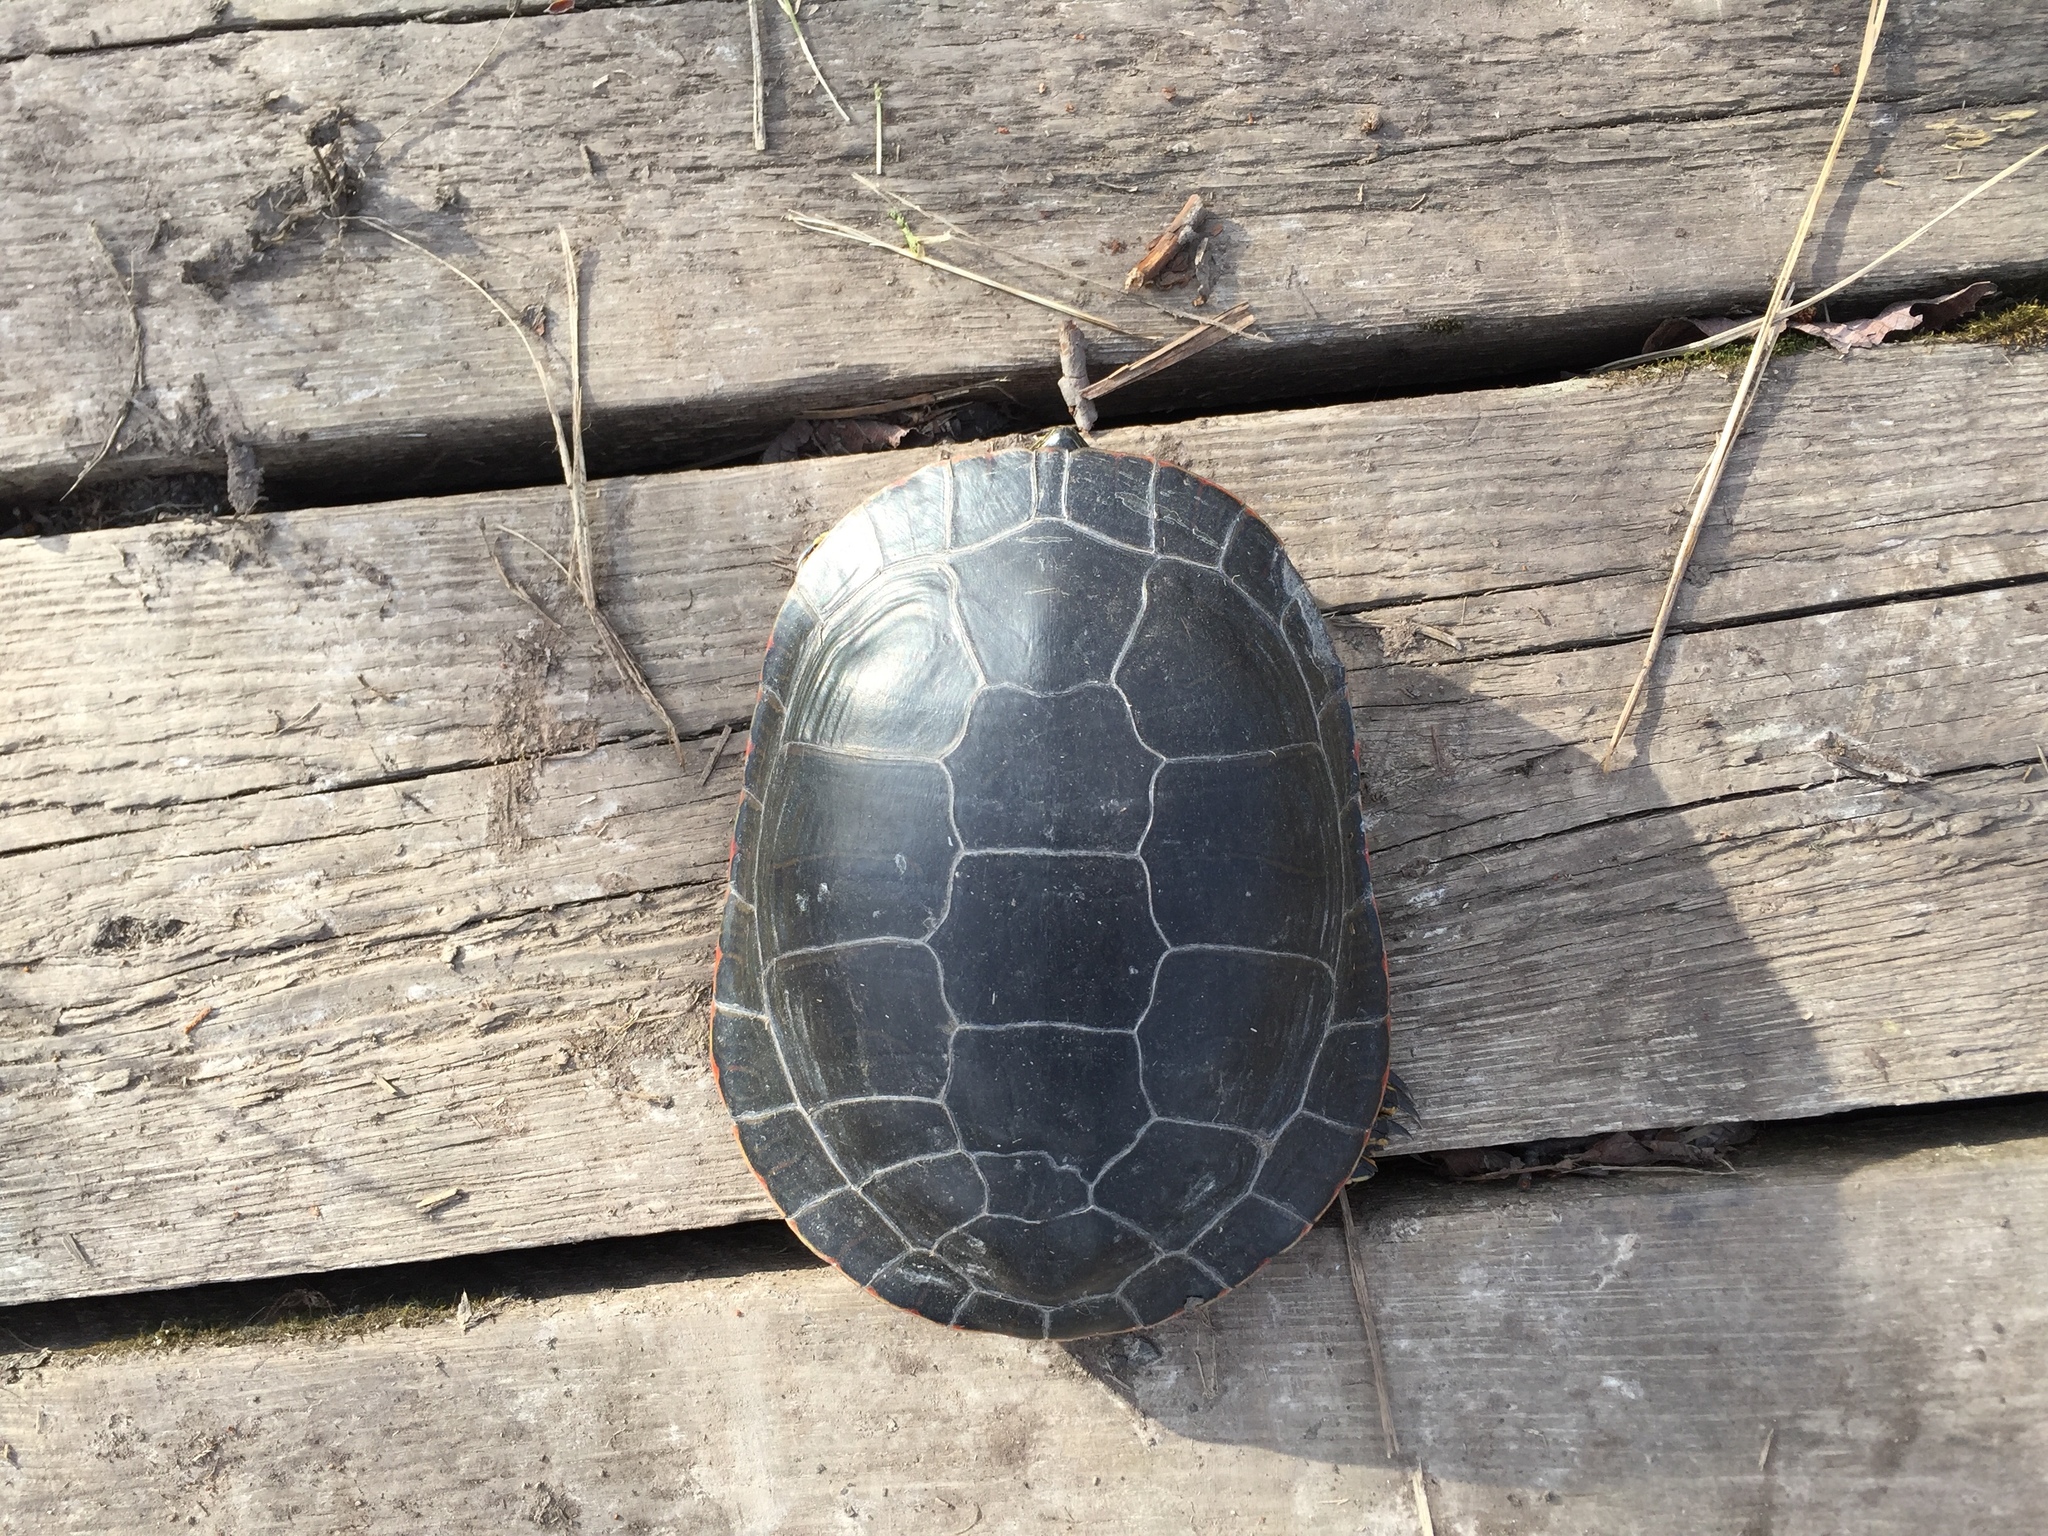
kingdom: Animalia
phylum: Chordata
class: Testudines
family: Emydidae
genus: Chrysemys
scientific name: Chrysemys picta
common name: Painted turtle
